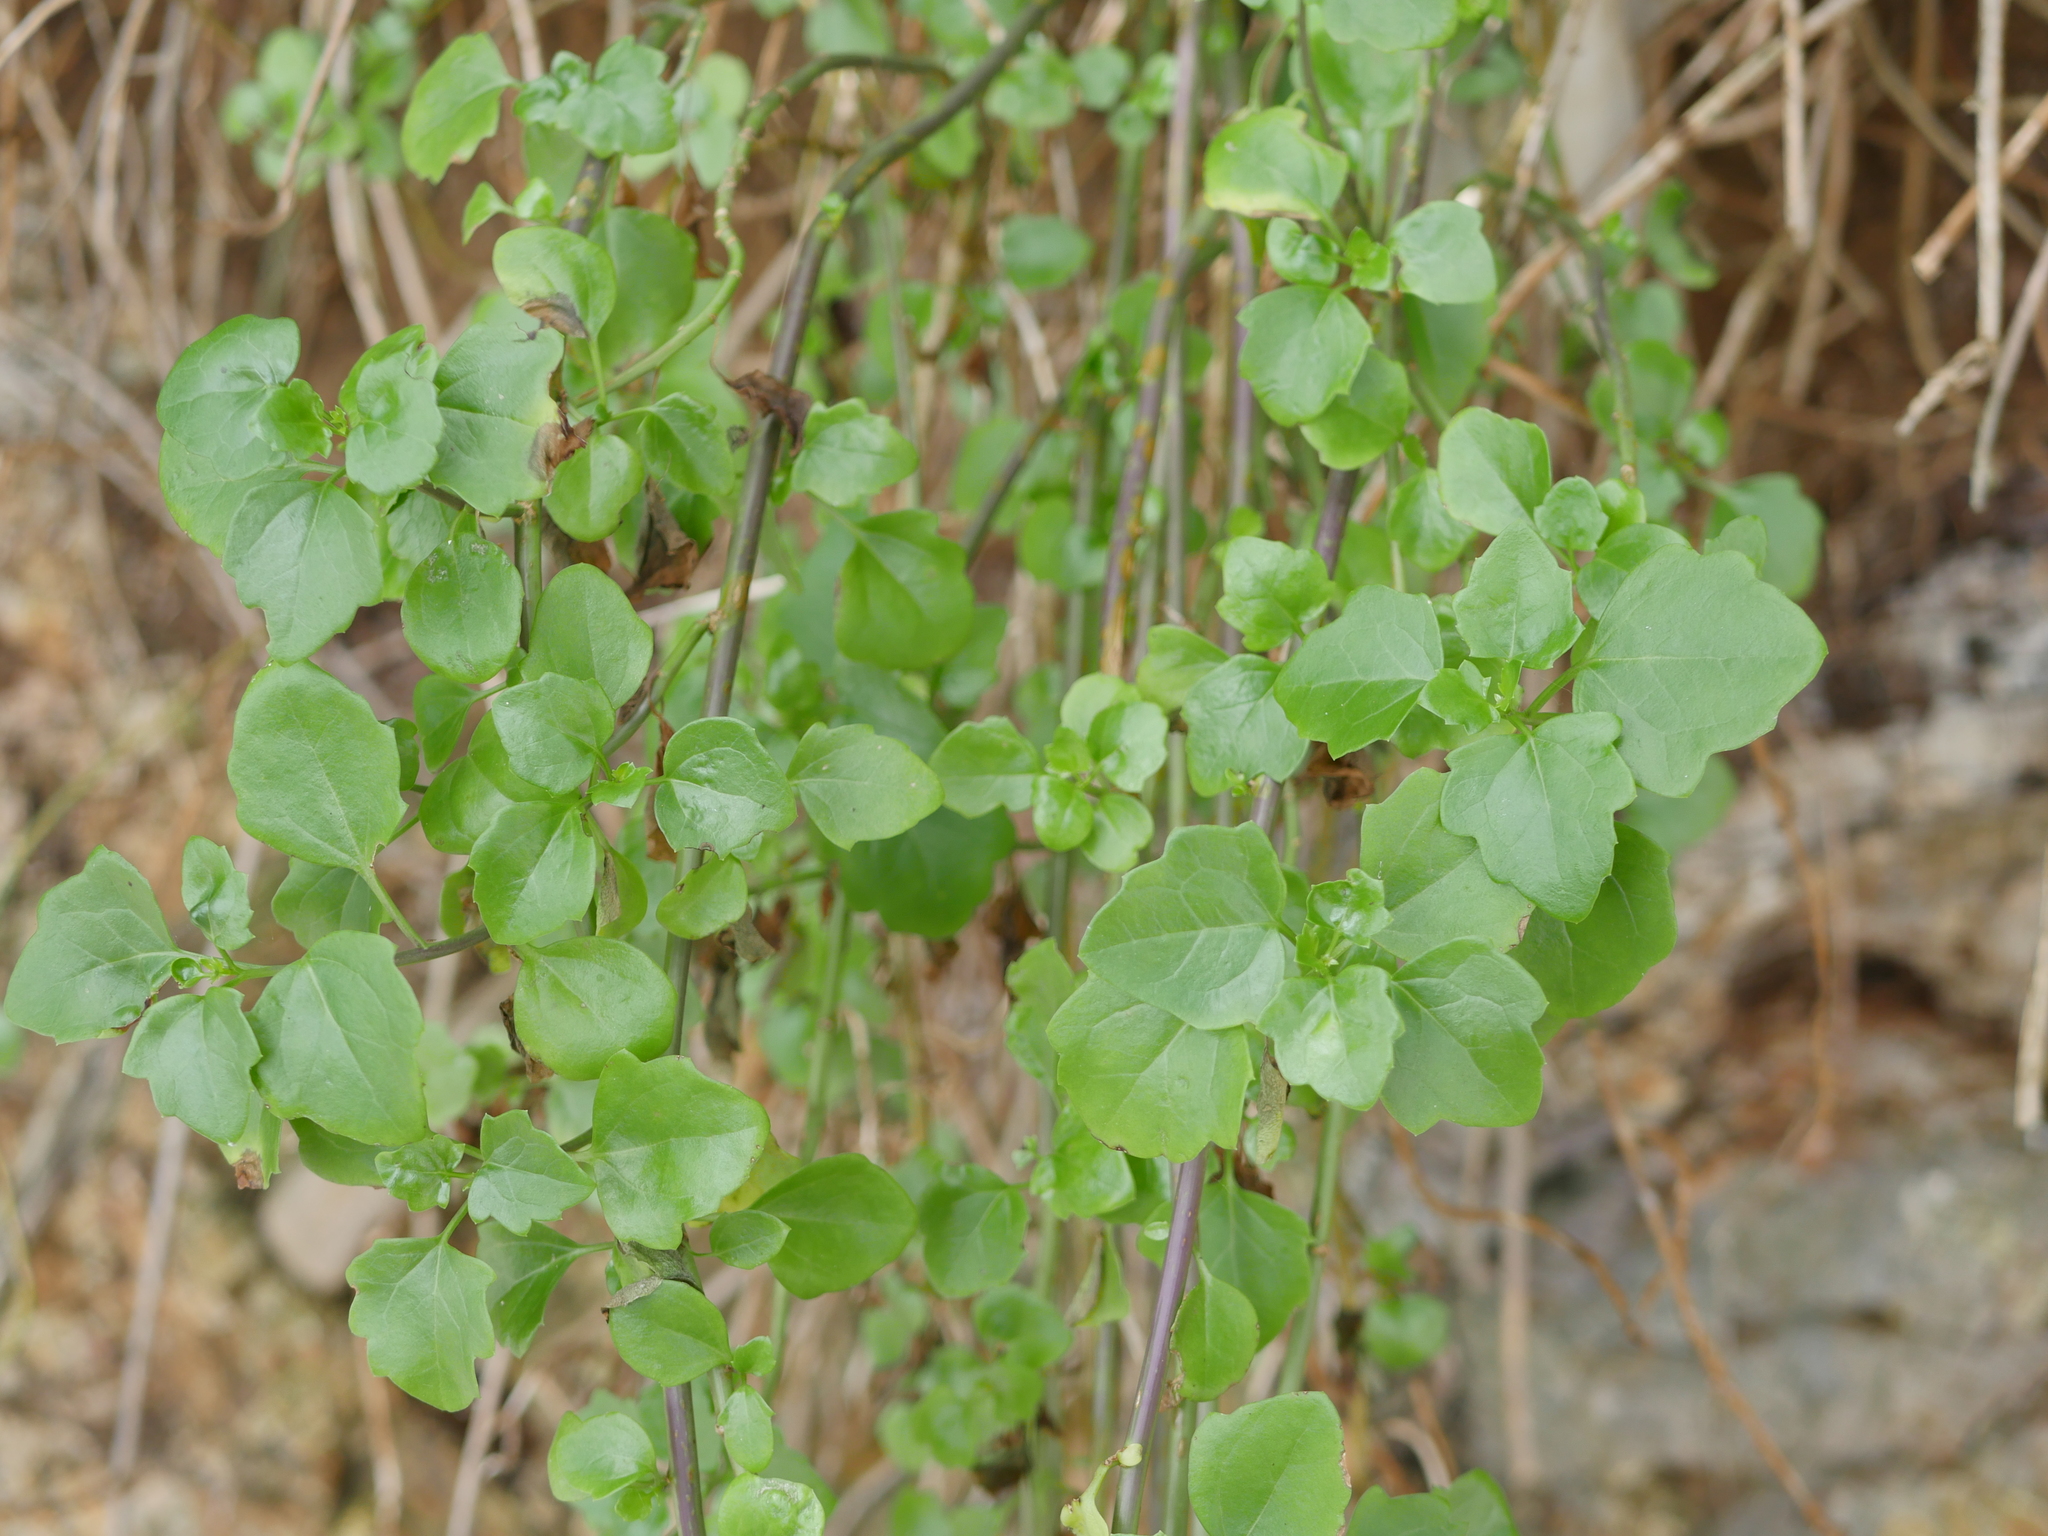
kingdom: Plantae
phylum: Tracheophyta
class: Magnoliopsida
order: Asterales
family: Asteraceae
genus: Senecio
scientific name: Senecio angulatus
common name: Climbing groundsel
